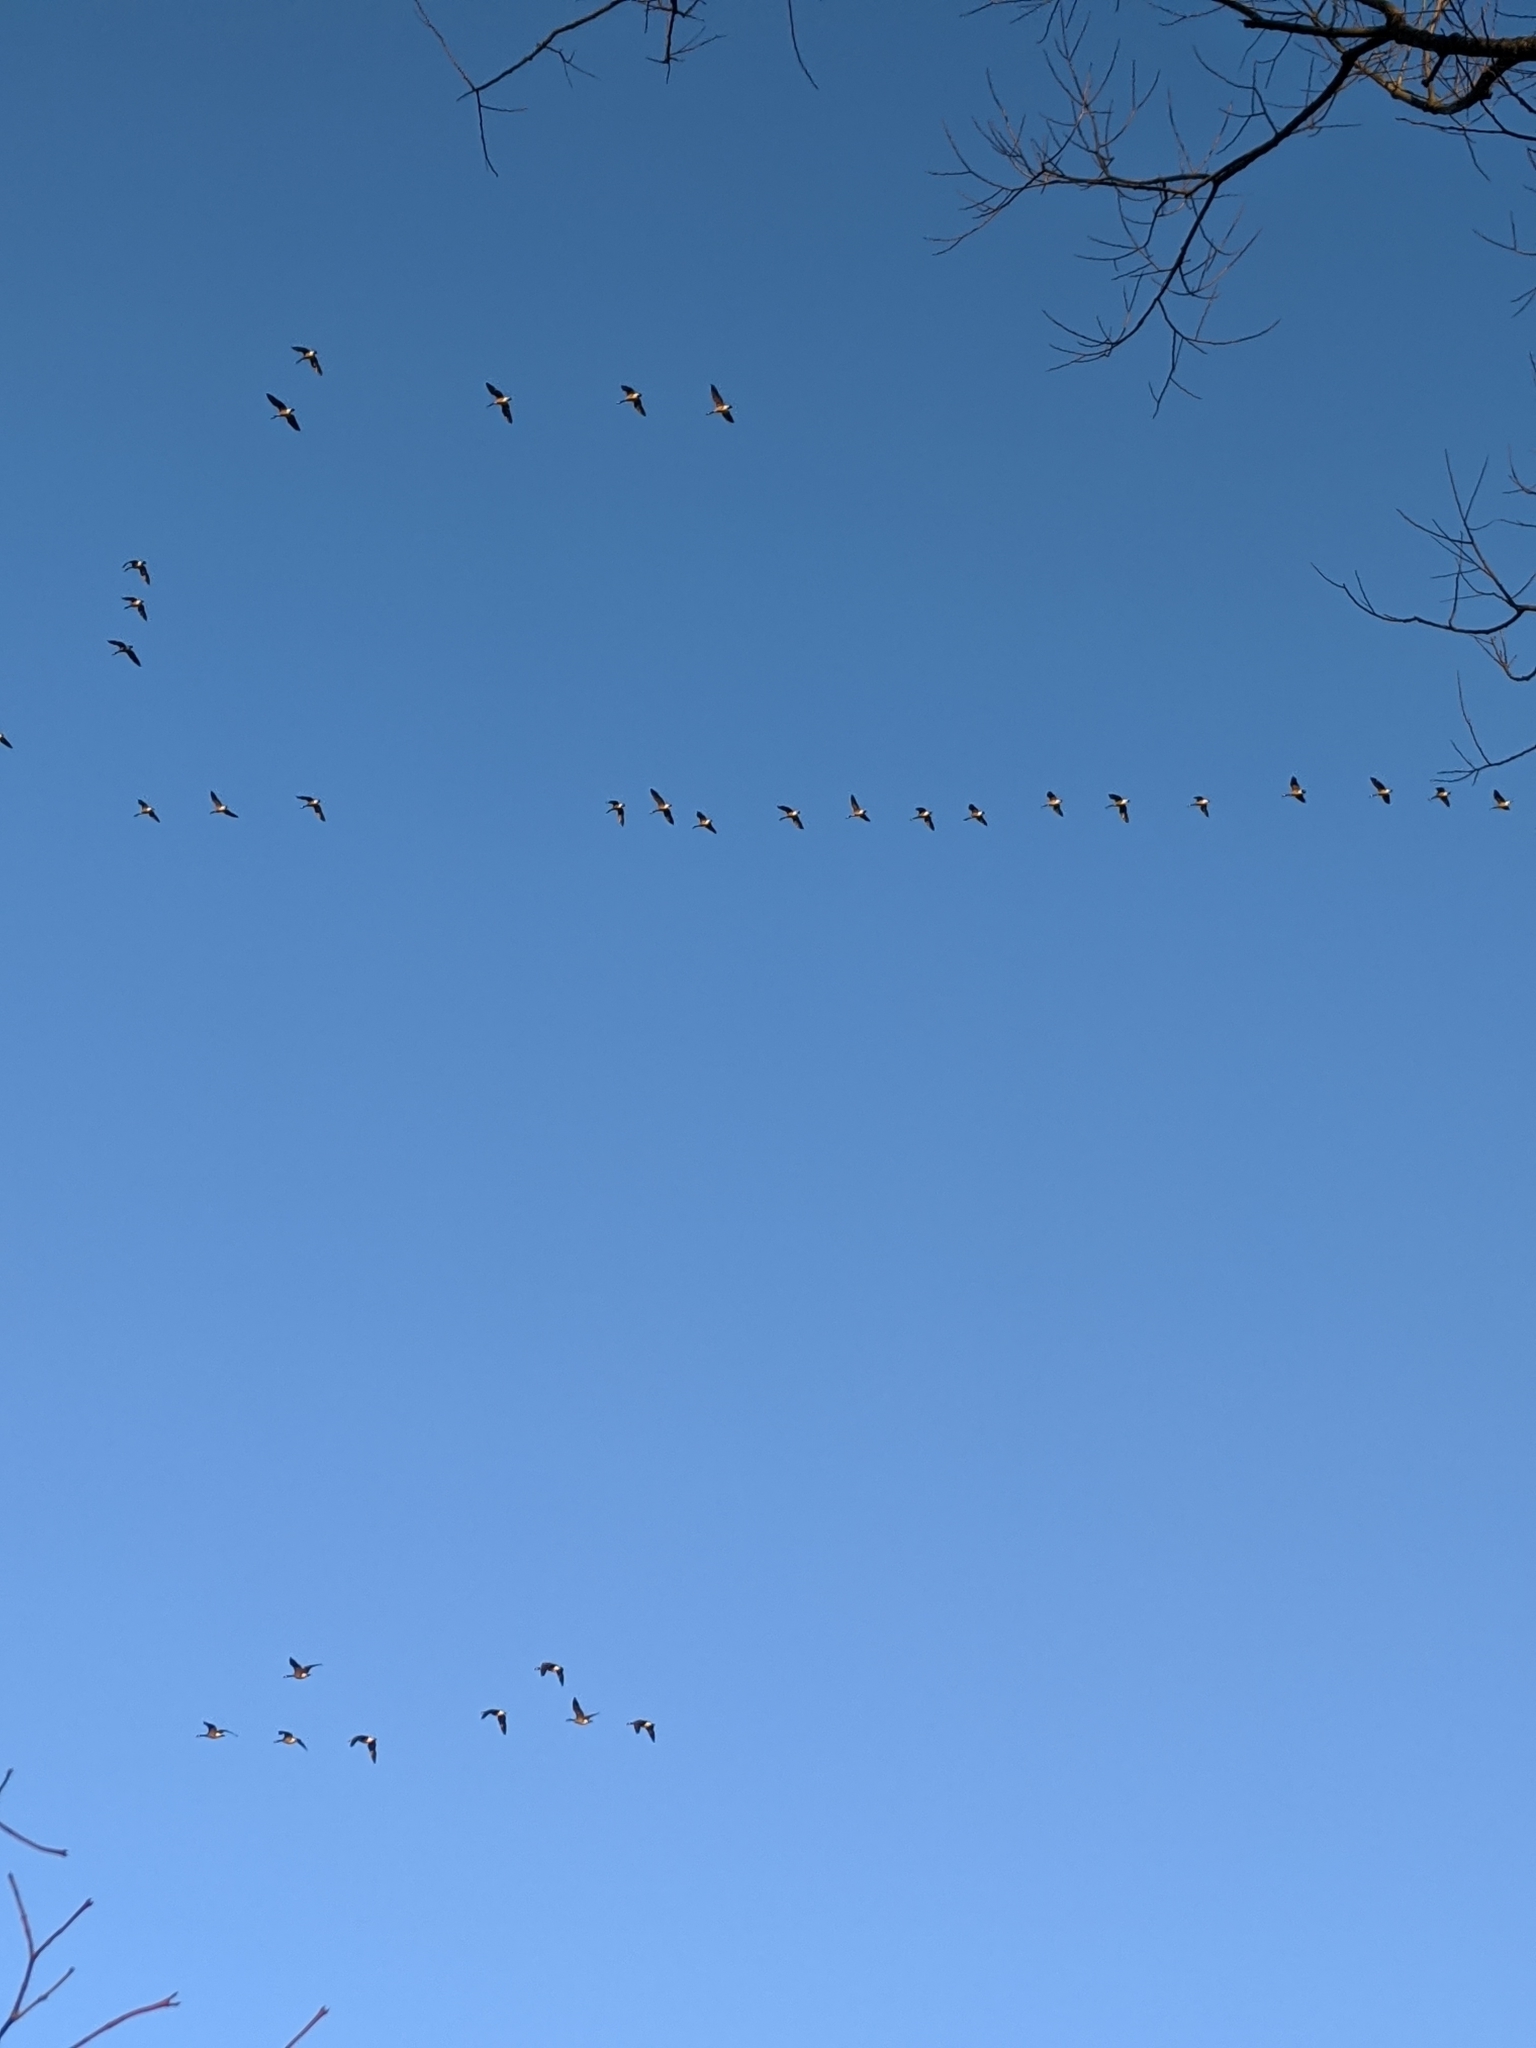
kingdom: Animalia
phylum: Chordata
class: Aves
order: Anseriformes
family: Anatidae
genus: Branta
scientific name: Branta canadensis
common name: Canada goose
